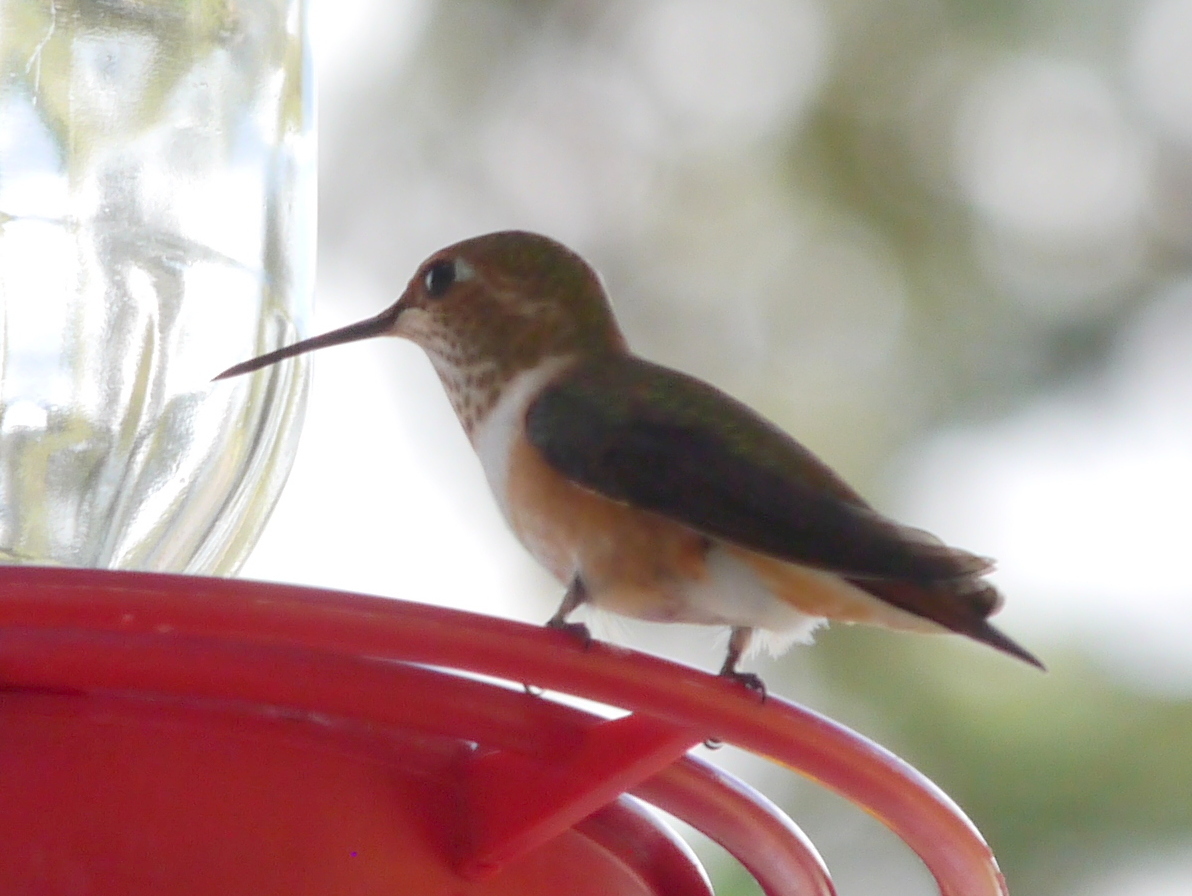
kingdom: Animalia
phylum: Chordata
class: Aves
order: Apodiformes
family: Trochilidae
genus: Selasphorus
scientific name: Selasphorus
